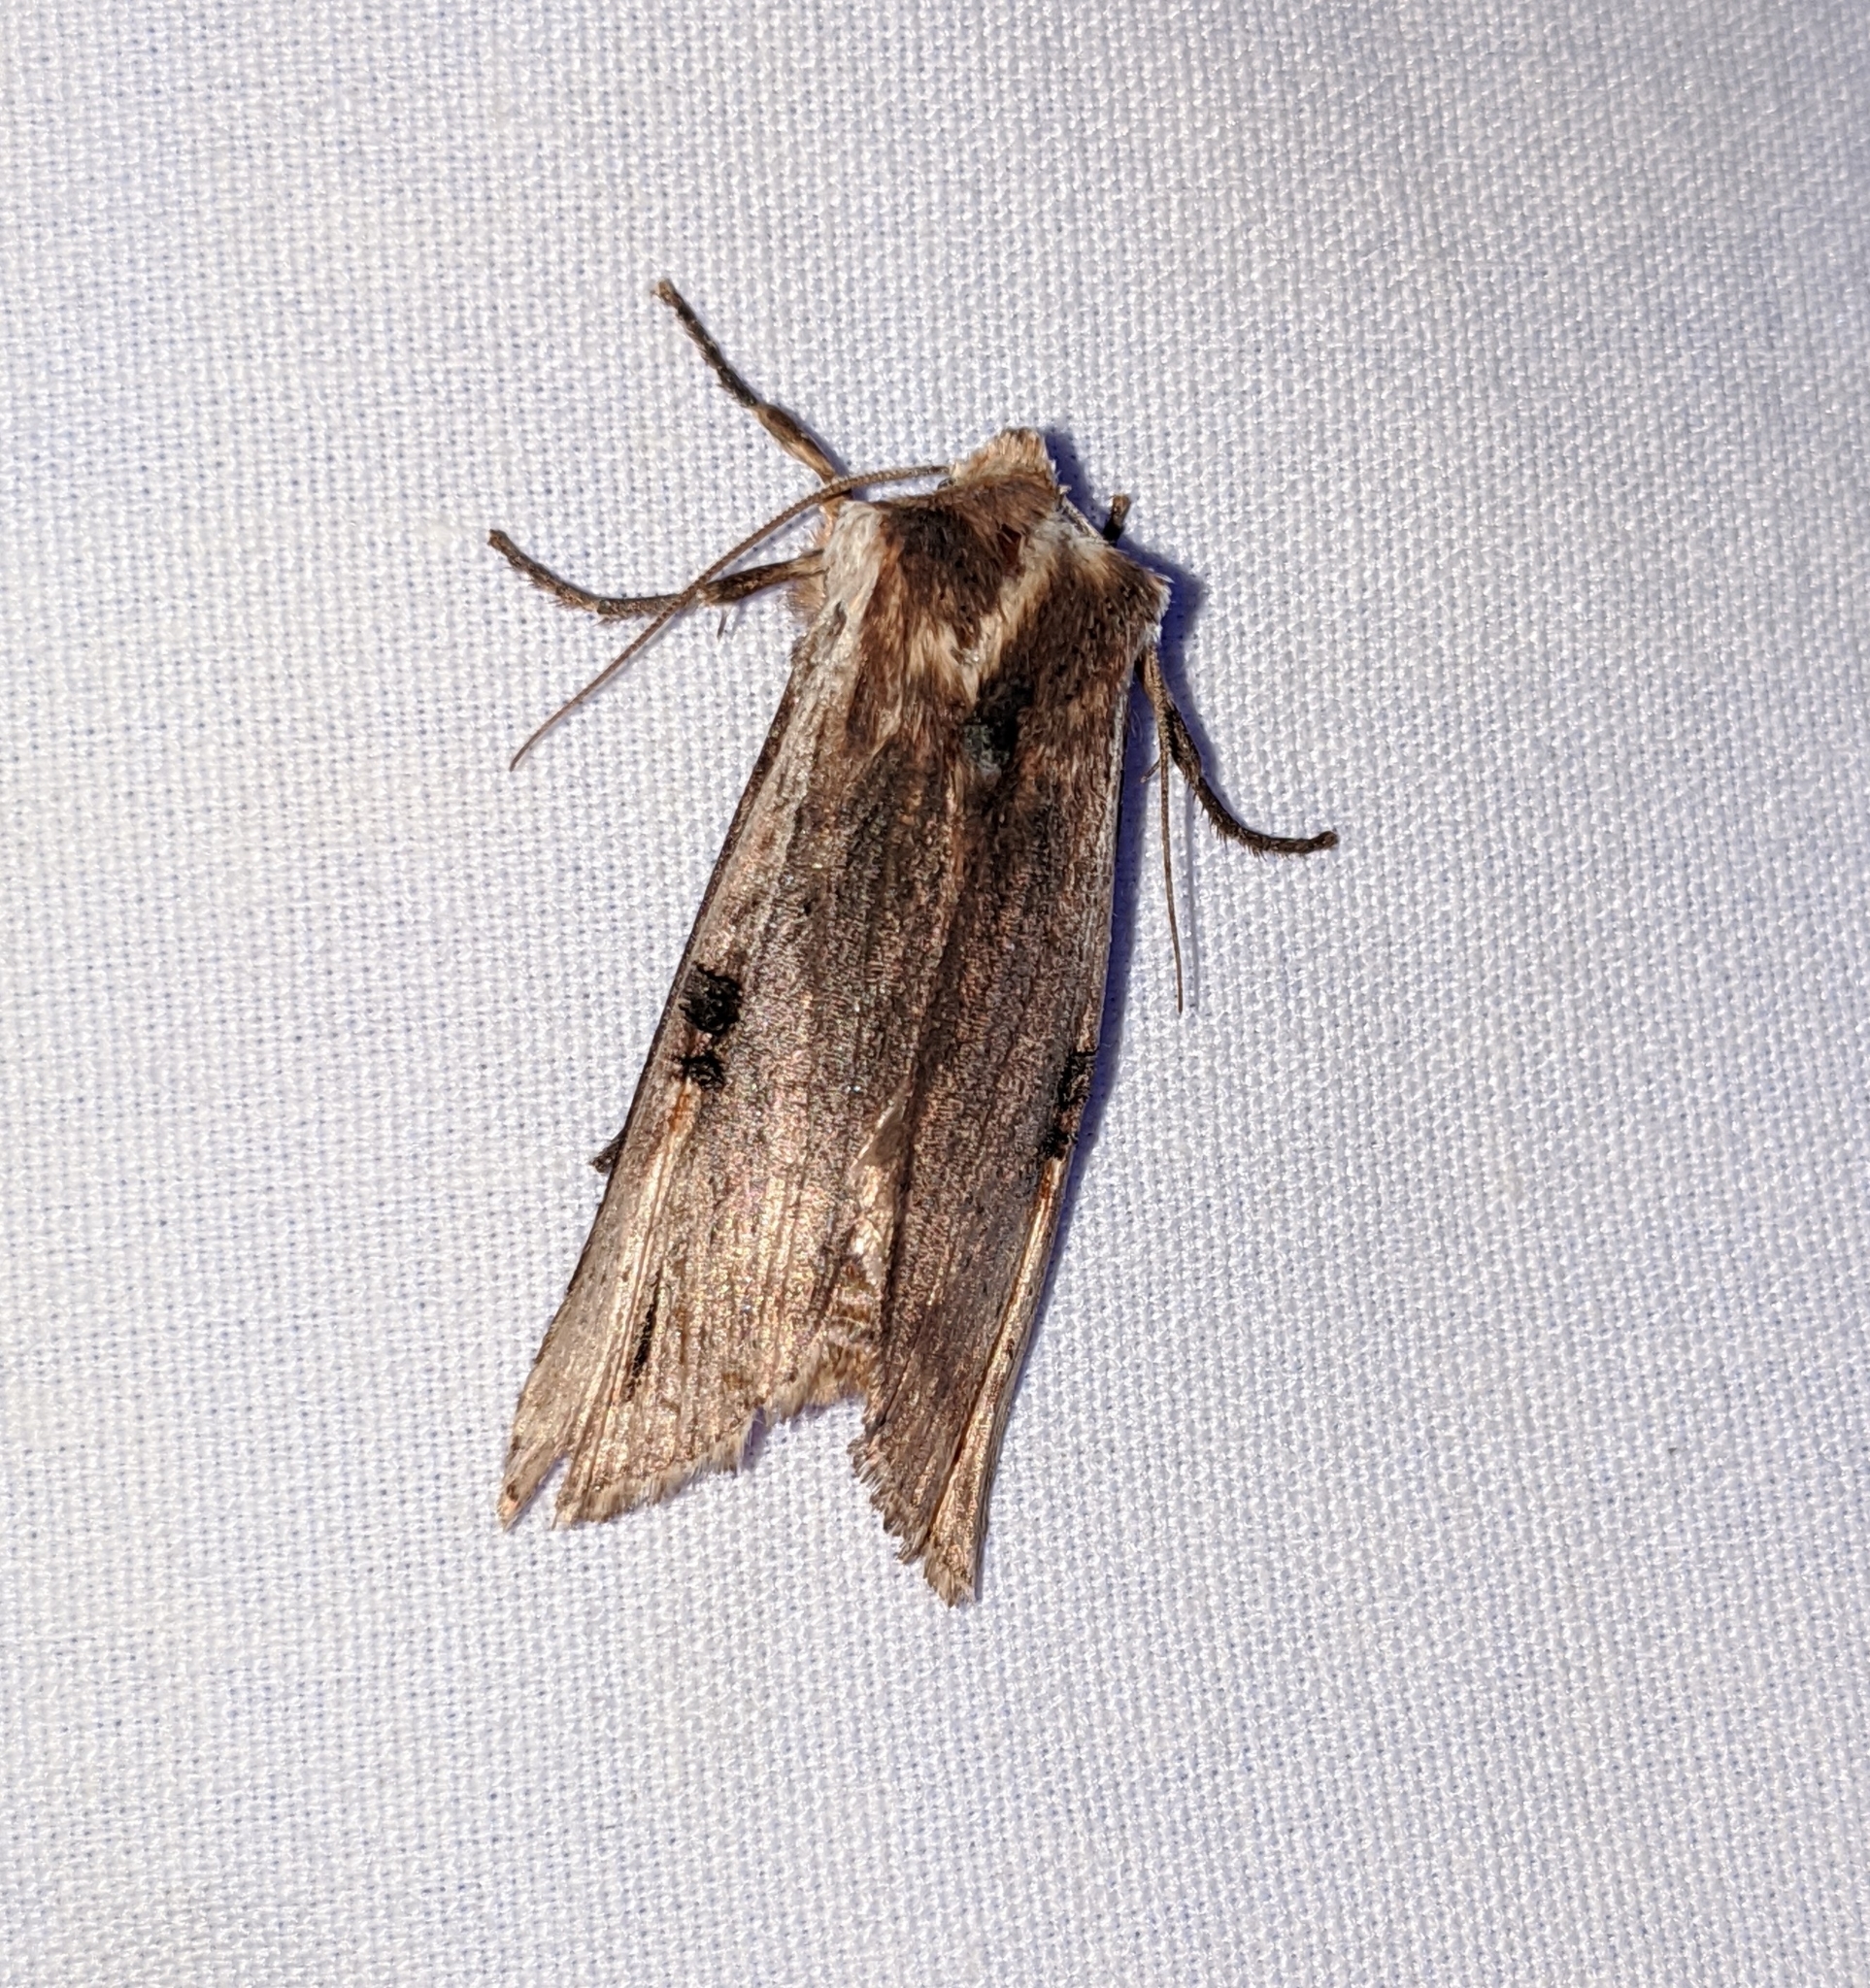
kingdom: Animalia
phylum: Arthropoda
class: Insecta
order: Lepidoptera
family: Noctuidae
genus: Xylena
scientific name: Xylena curvimacula
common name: Dot-and-dash swordgrass moth
